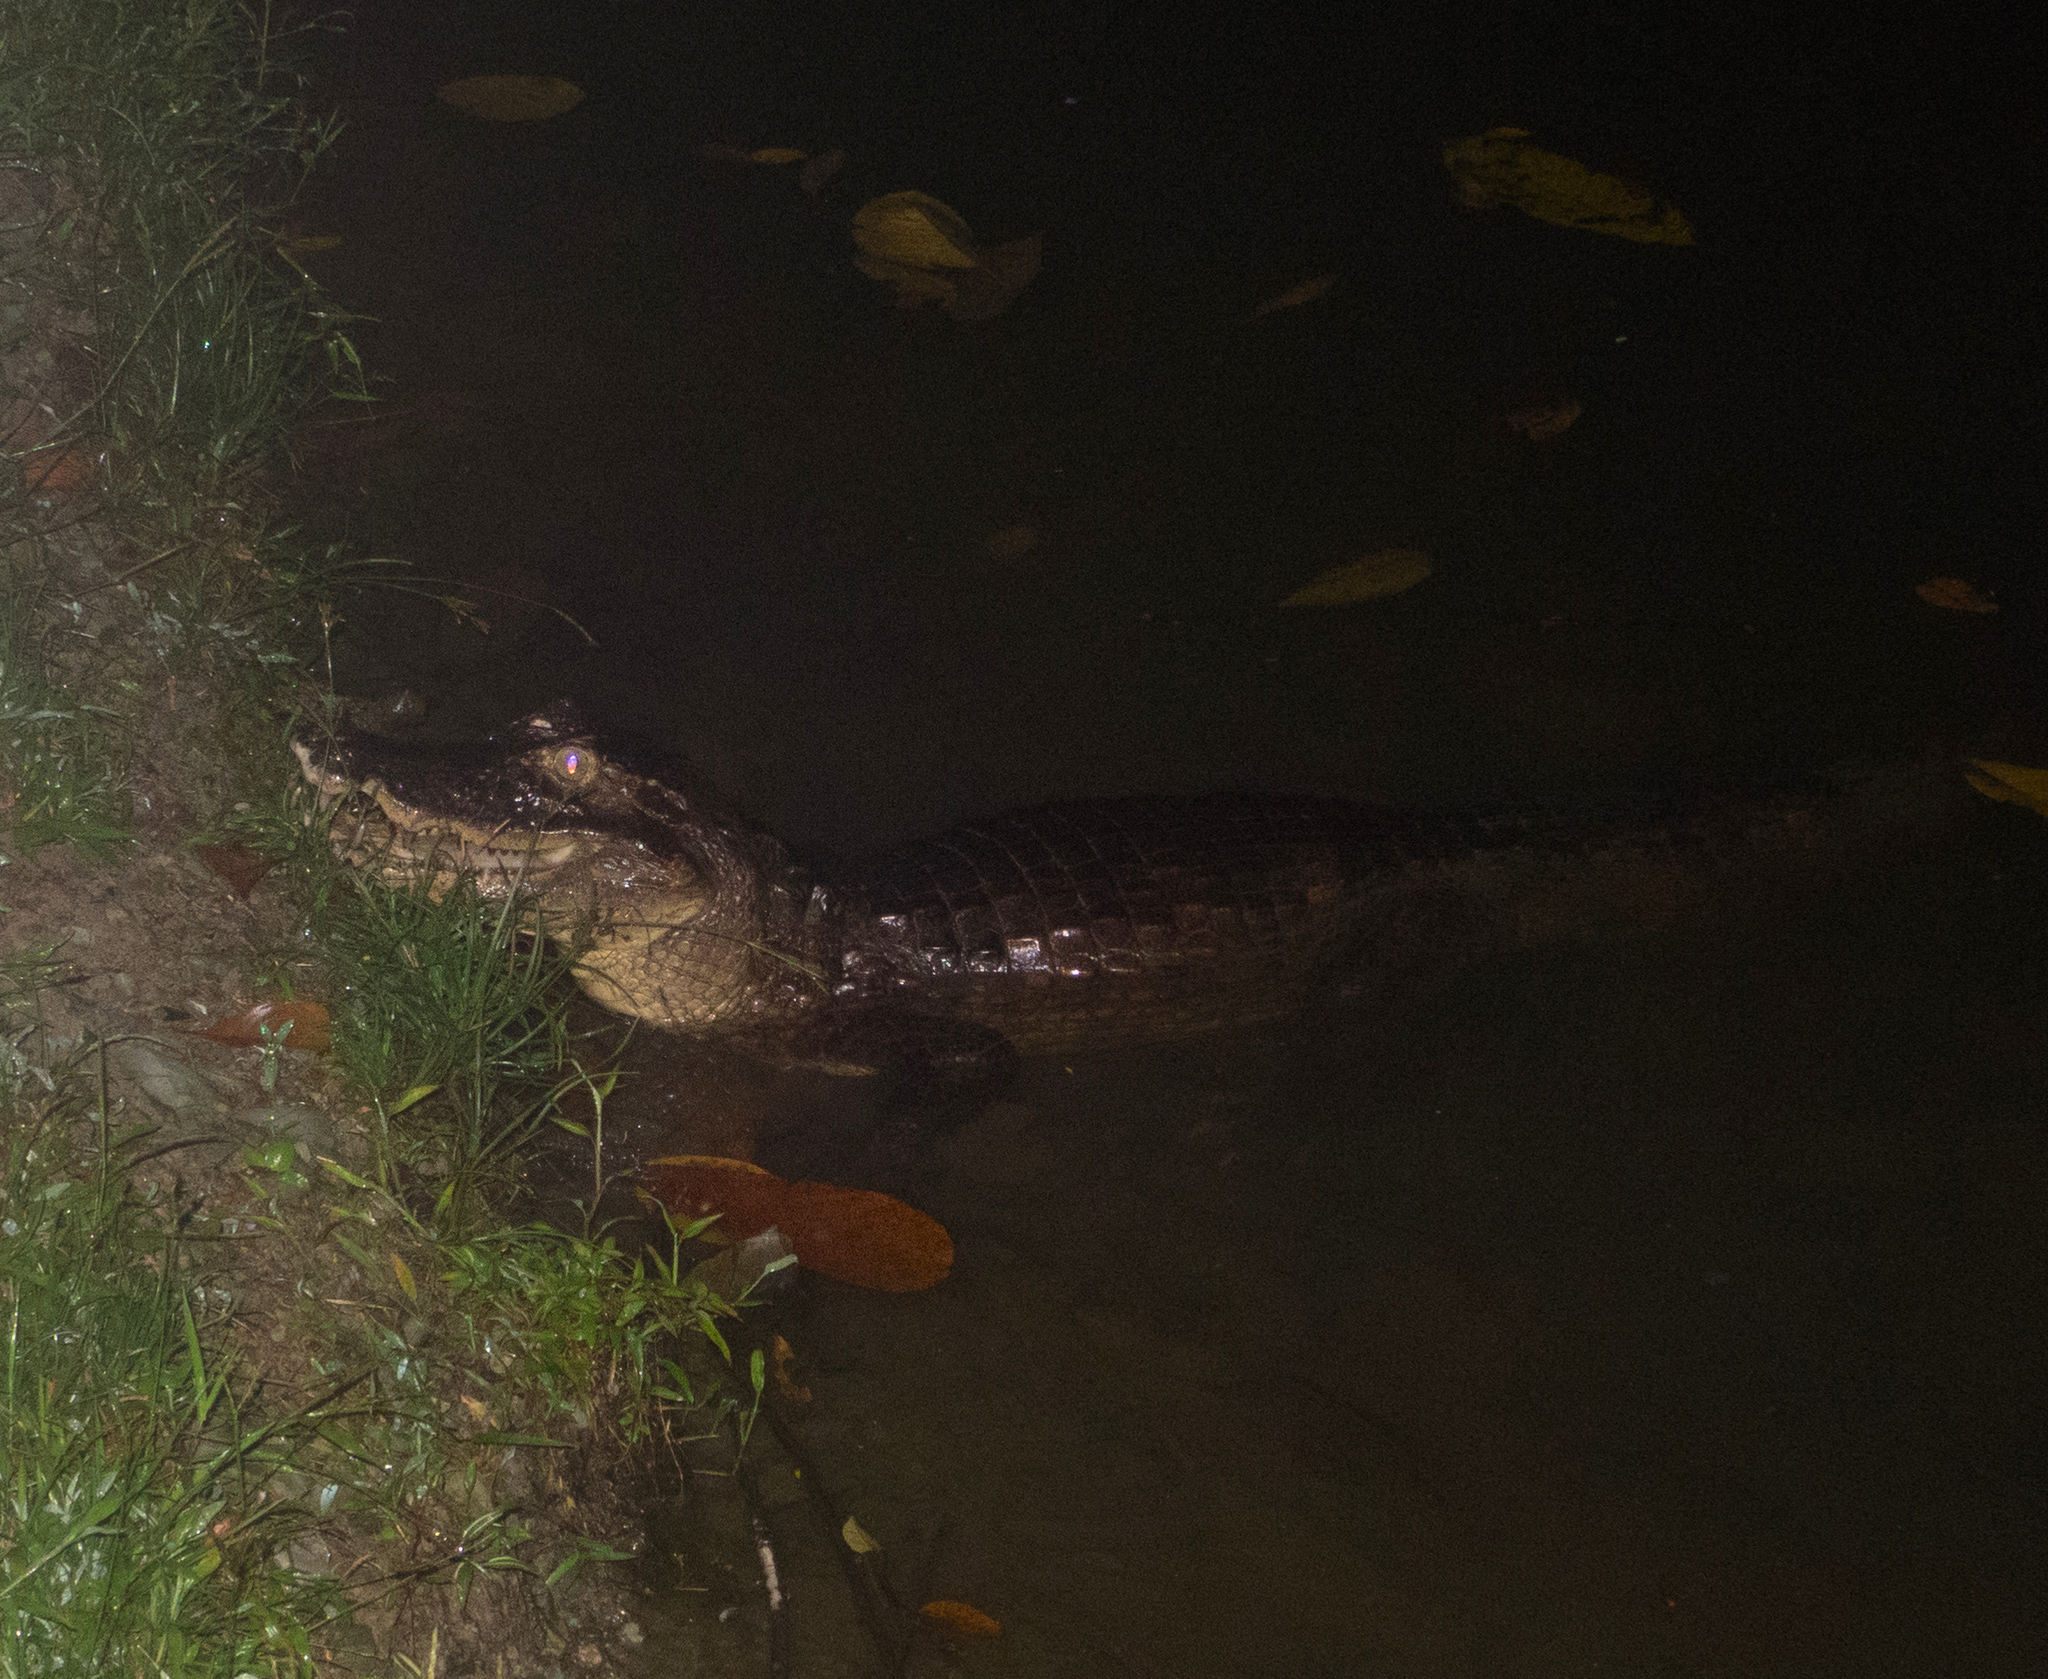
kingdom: Animalia
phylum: Chordata
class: Crocodylia
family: Alligatoridae
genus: Caiman
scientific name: Caiman crocodilus
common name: Common caiman
